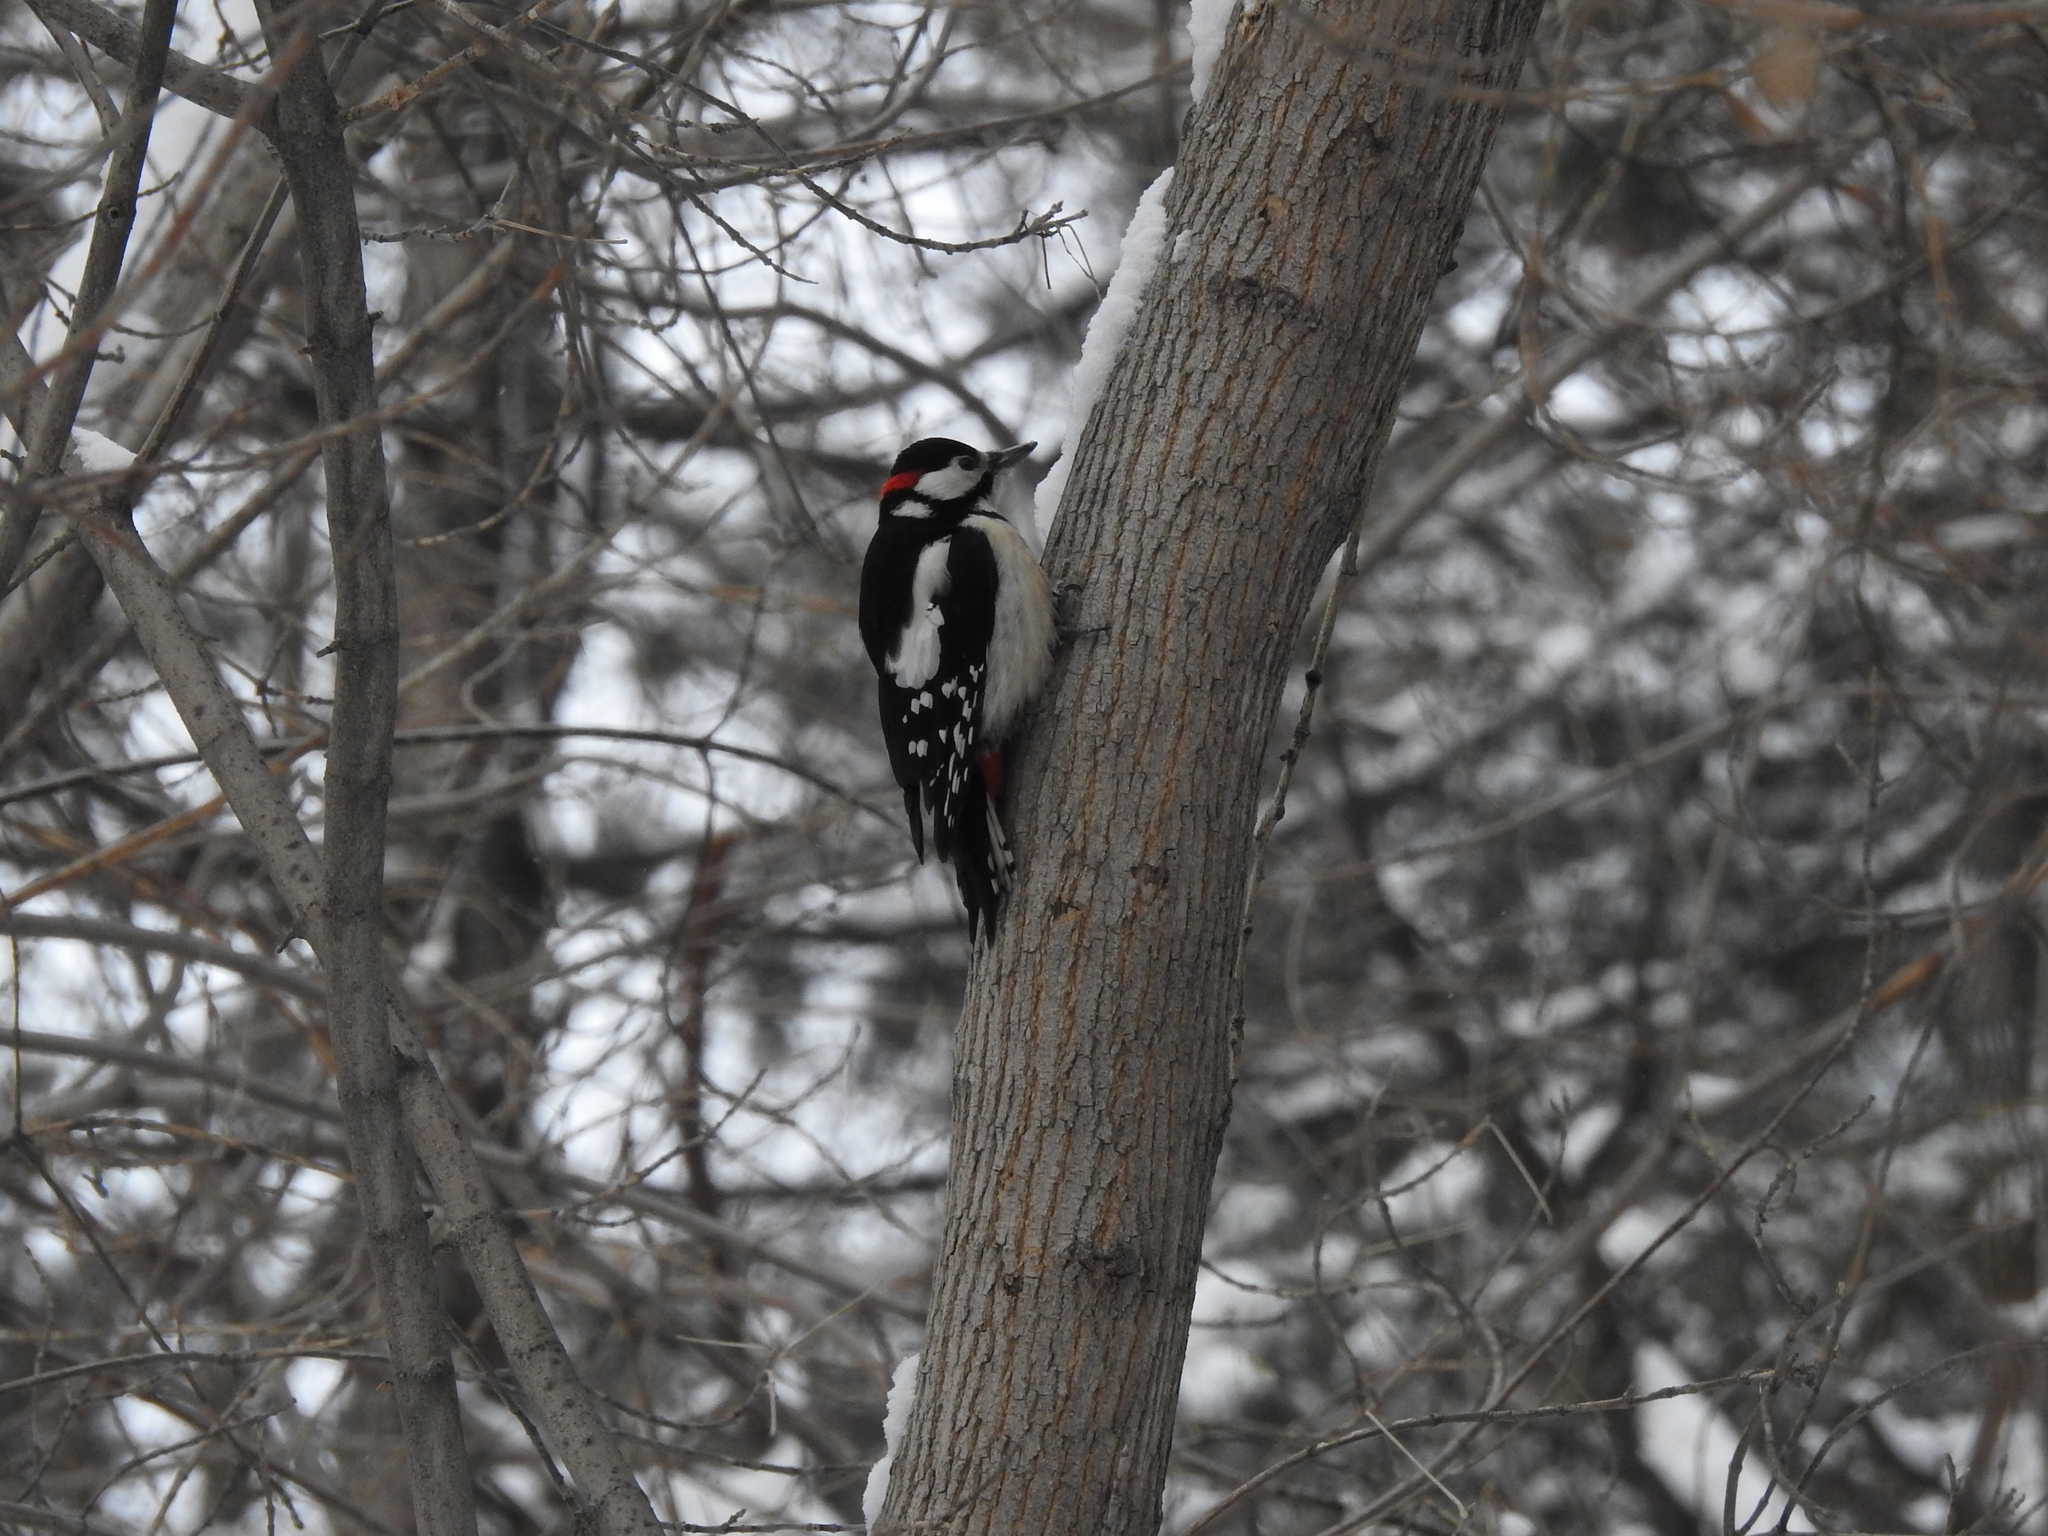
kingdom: Animalia
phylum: Chordata
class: Aves
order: Piciformes
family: Picidae
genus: Dendrocopos
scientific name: Dendrocopos major
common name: Great spotted woodpecker
